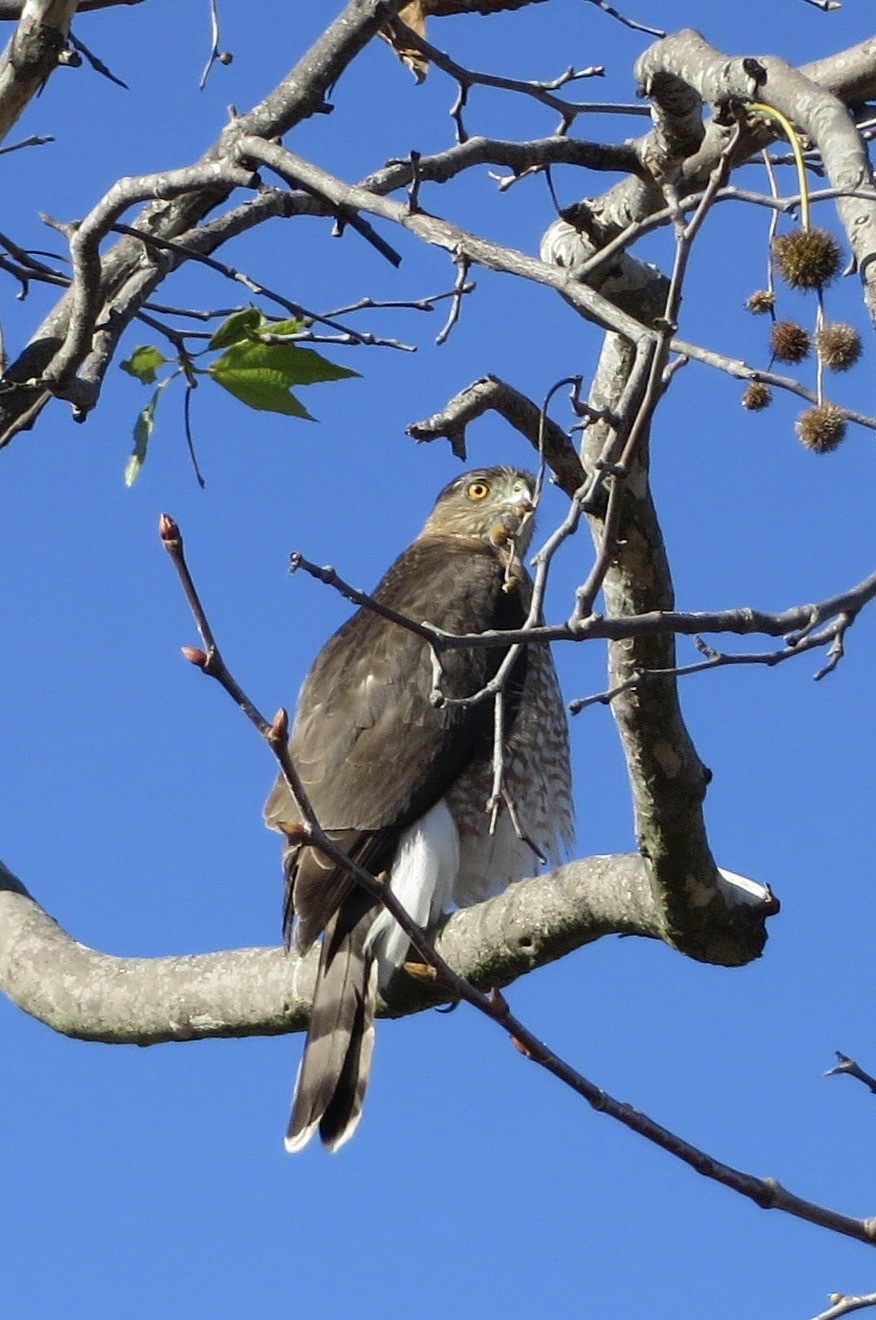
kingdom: Animalia
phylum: Chordata
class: Aves
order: Accipitriformes
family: Accipitridae
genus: Accipiter
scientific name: Accipiter cooperii
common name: Cooper's hawk
